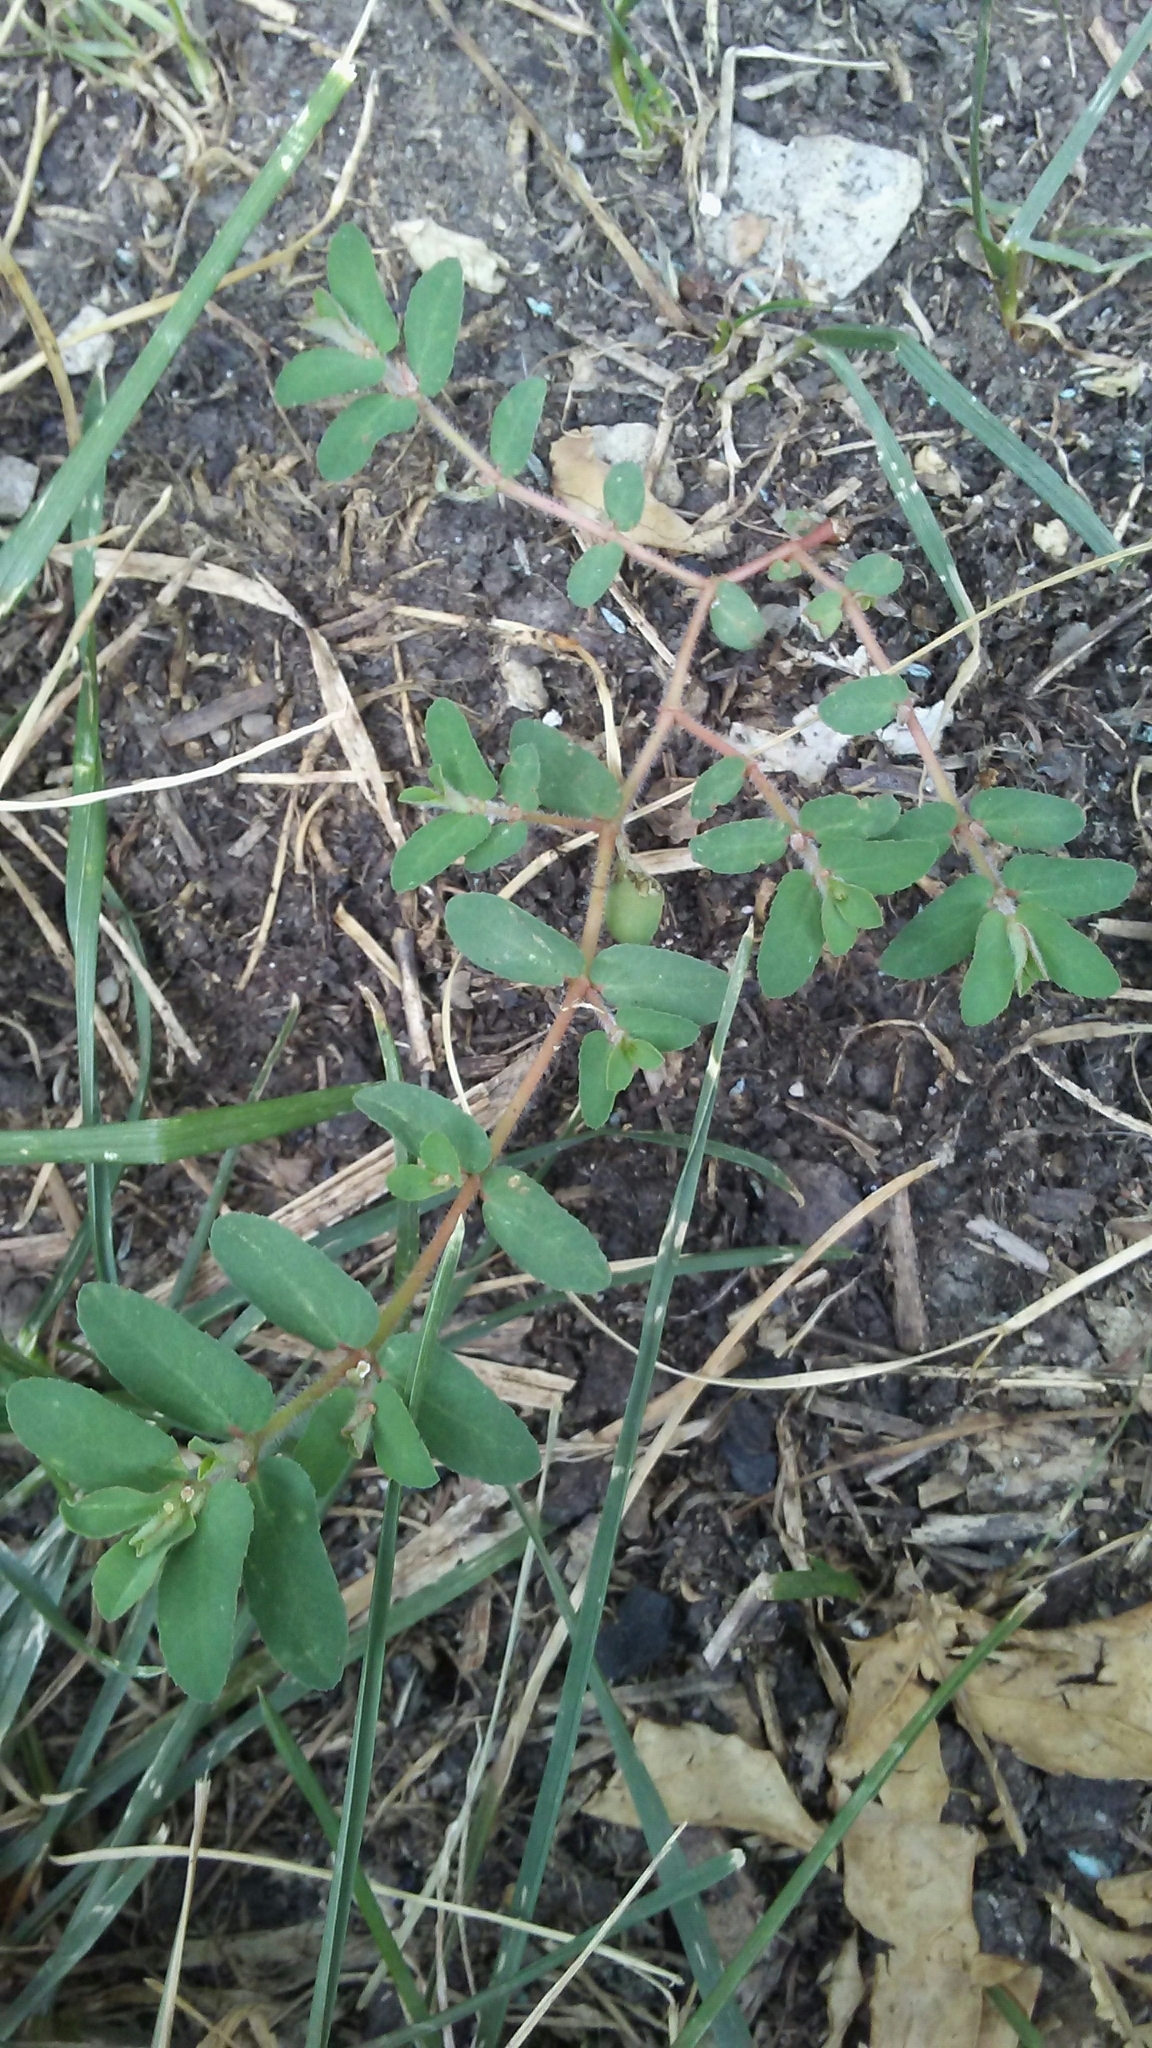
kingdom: Plantae
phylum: Tracheophyta
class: Magnoliopsida
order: Malpighiales
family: Euphorbiaceae
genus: Euphorbia
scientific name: Euphorbia maculata
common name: Spotted spurge
